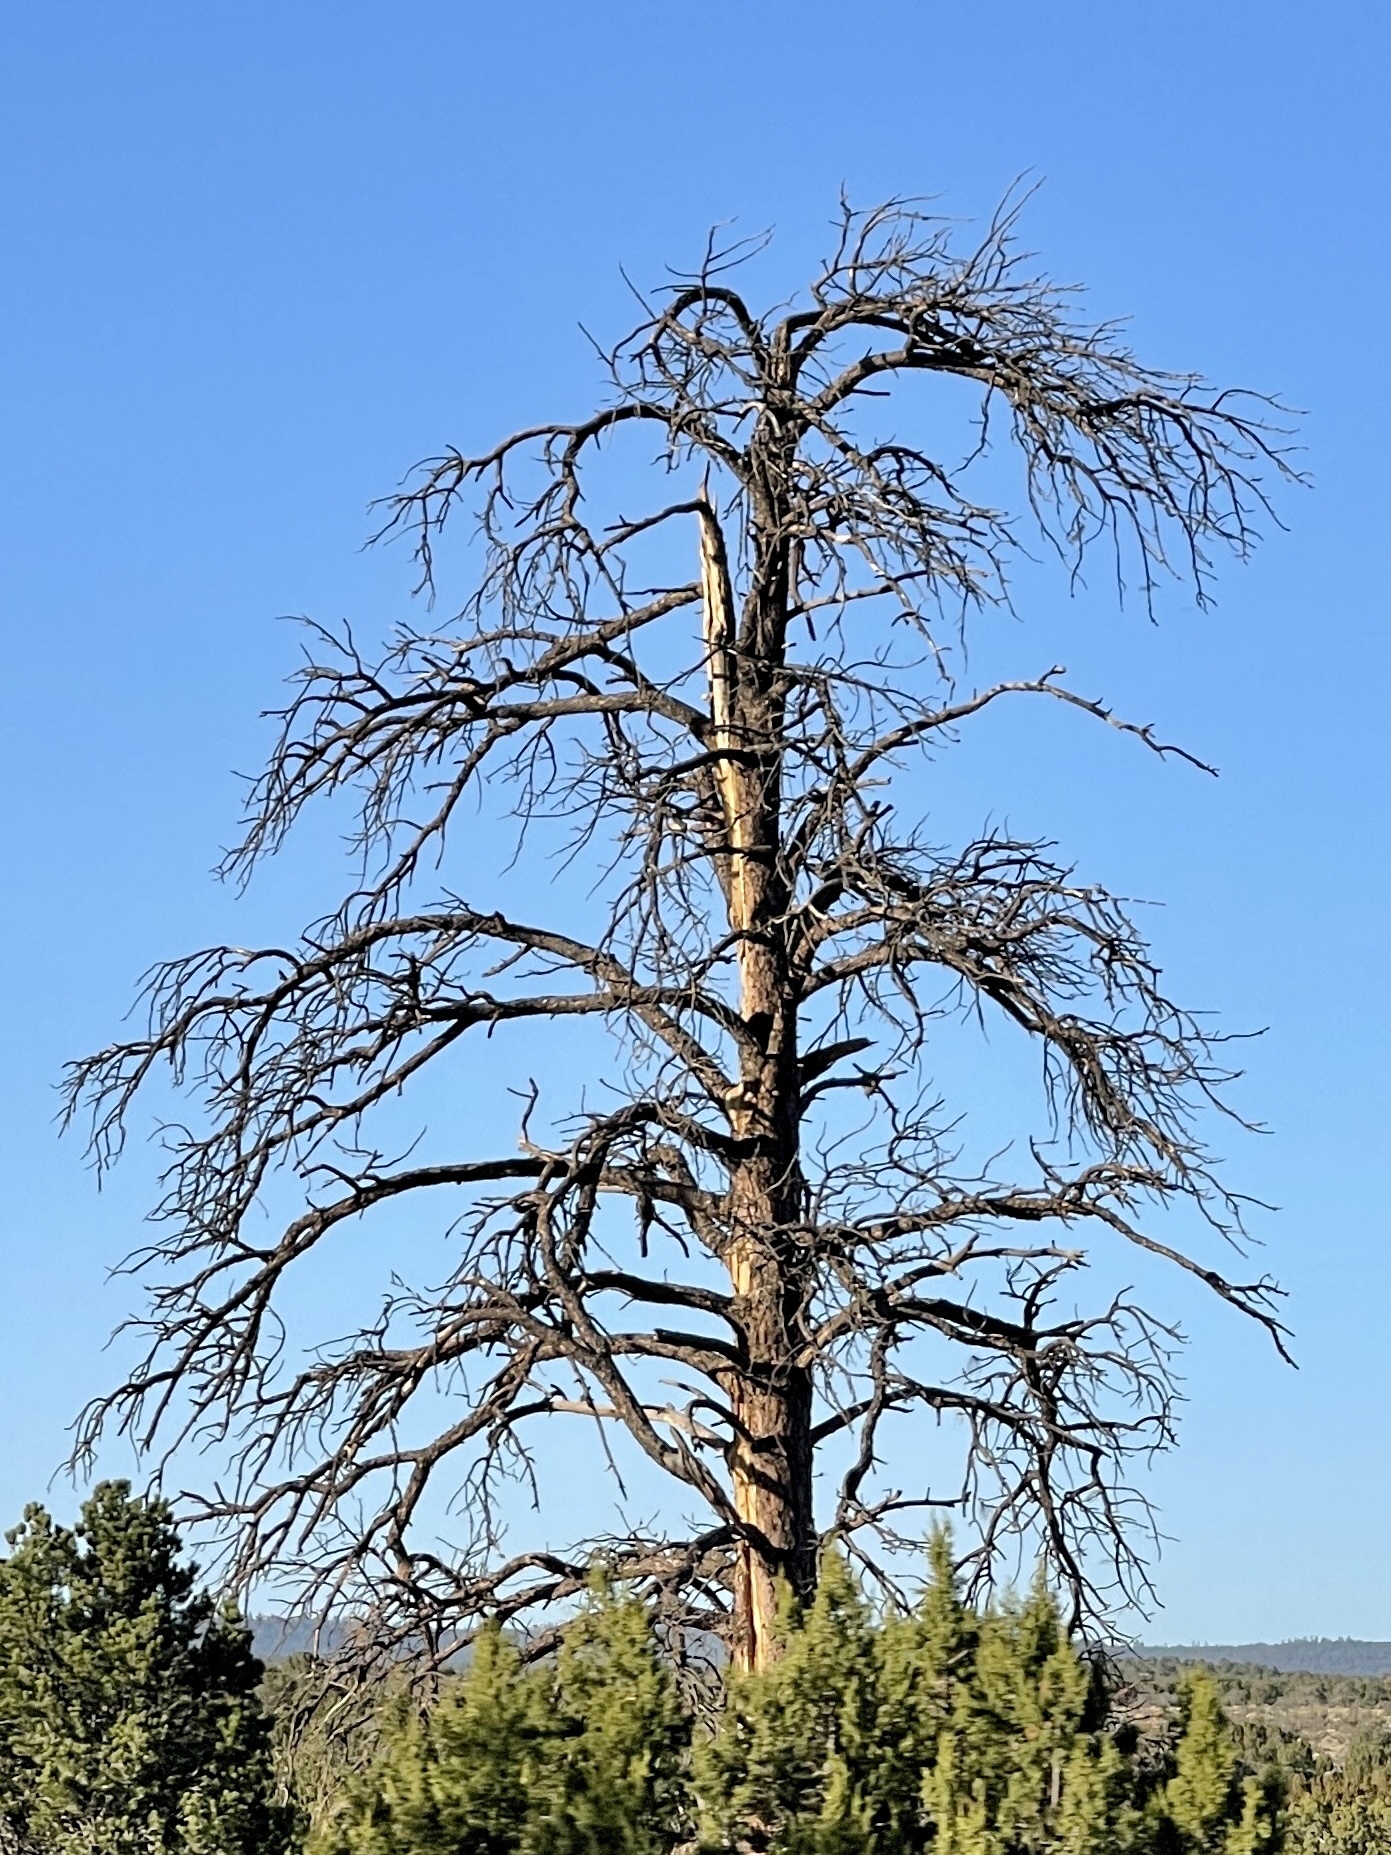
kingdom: Plantae
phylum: Tracheophyta
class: Pinopsida
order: Pinales
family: Pinaceae
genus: Pinus
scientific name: Pinus ponderosa
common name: Western yellow-pine
